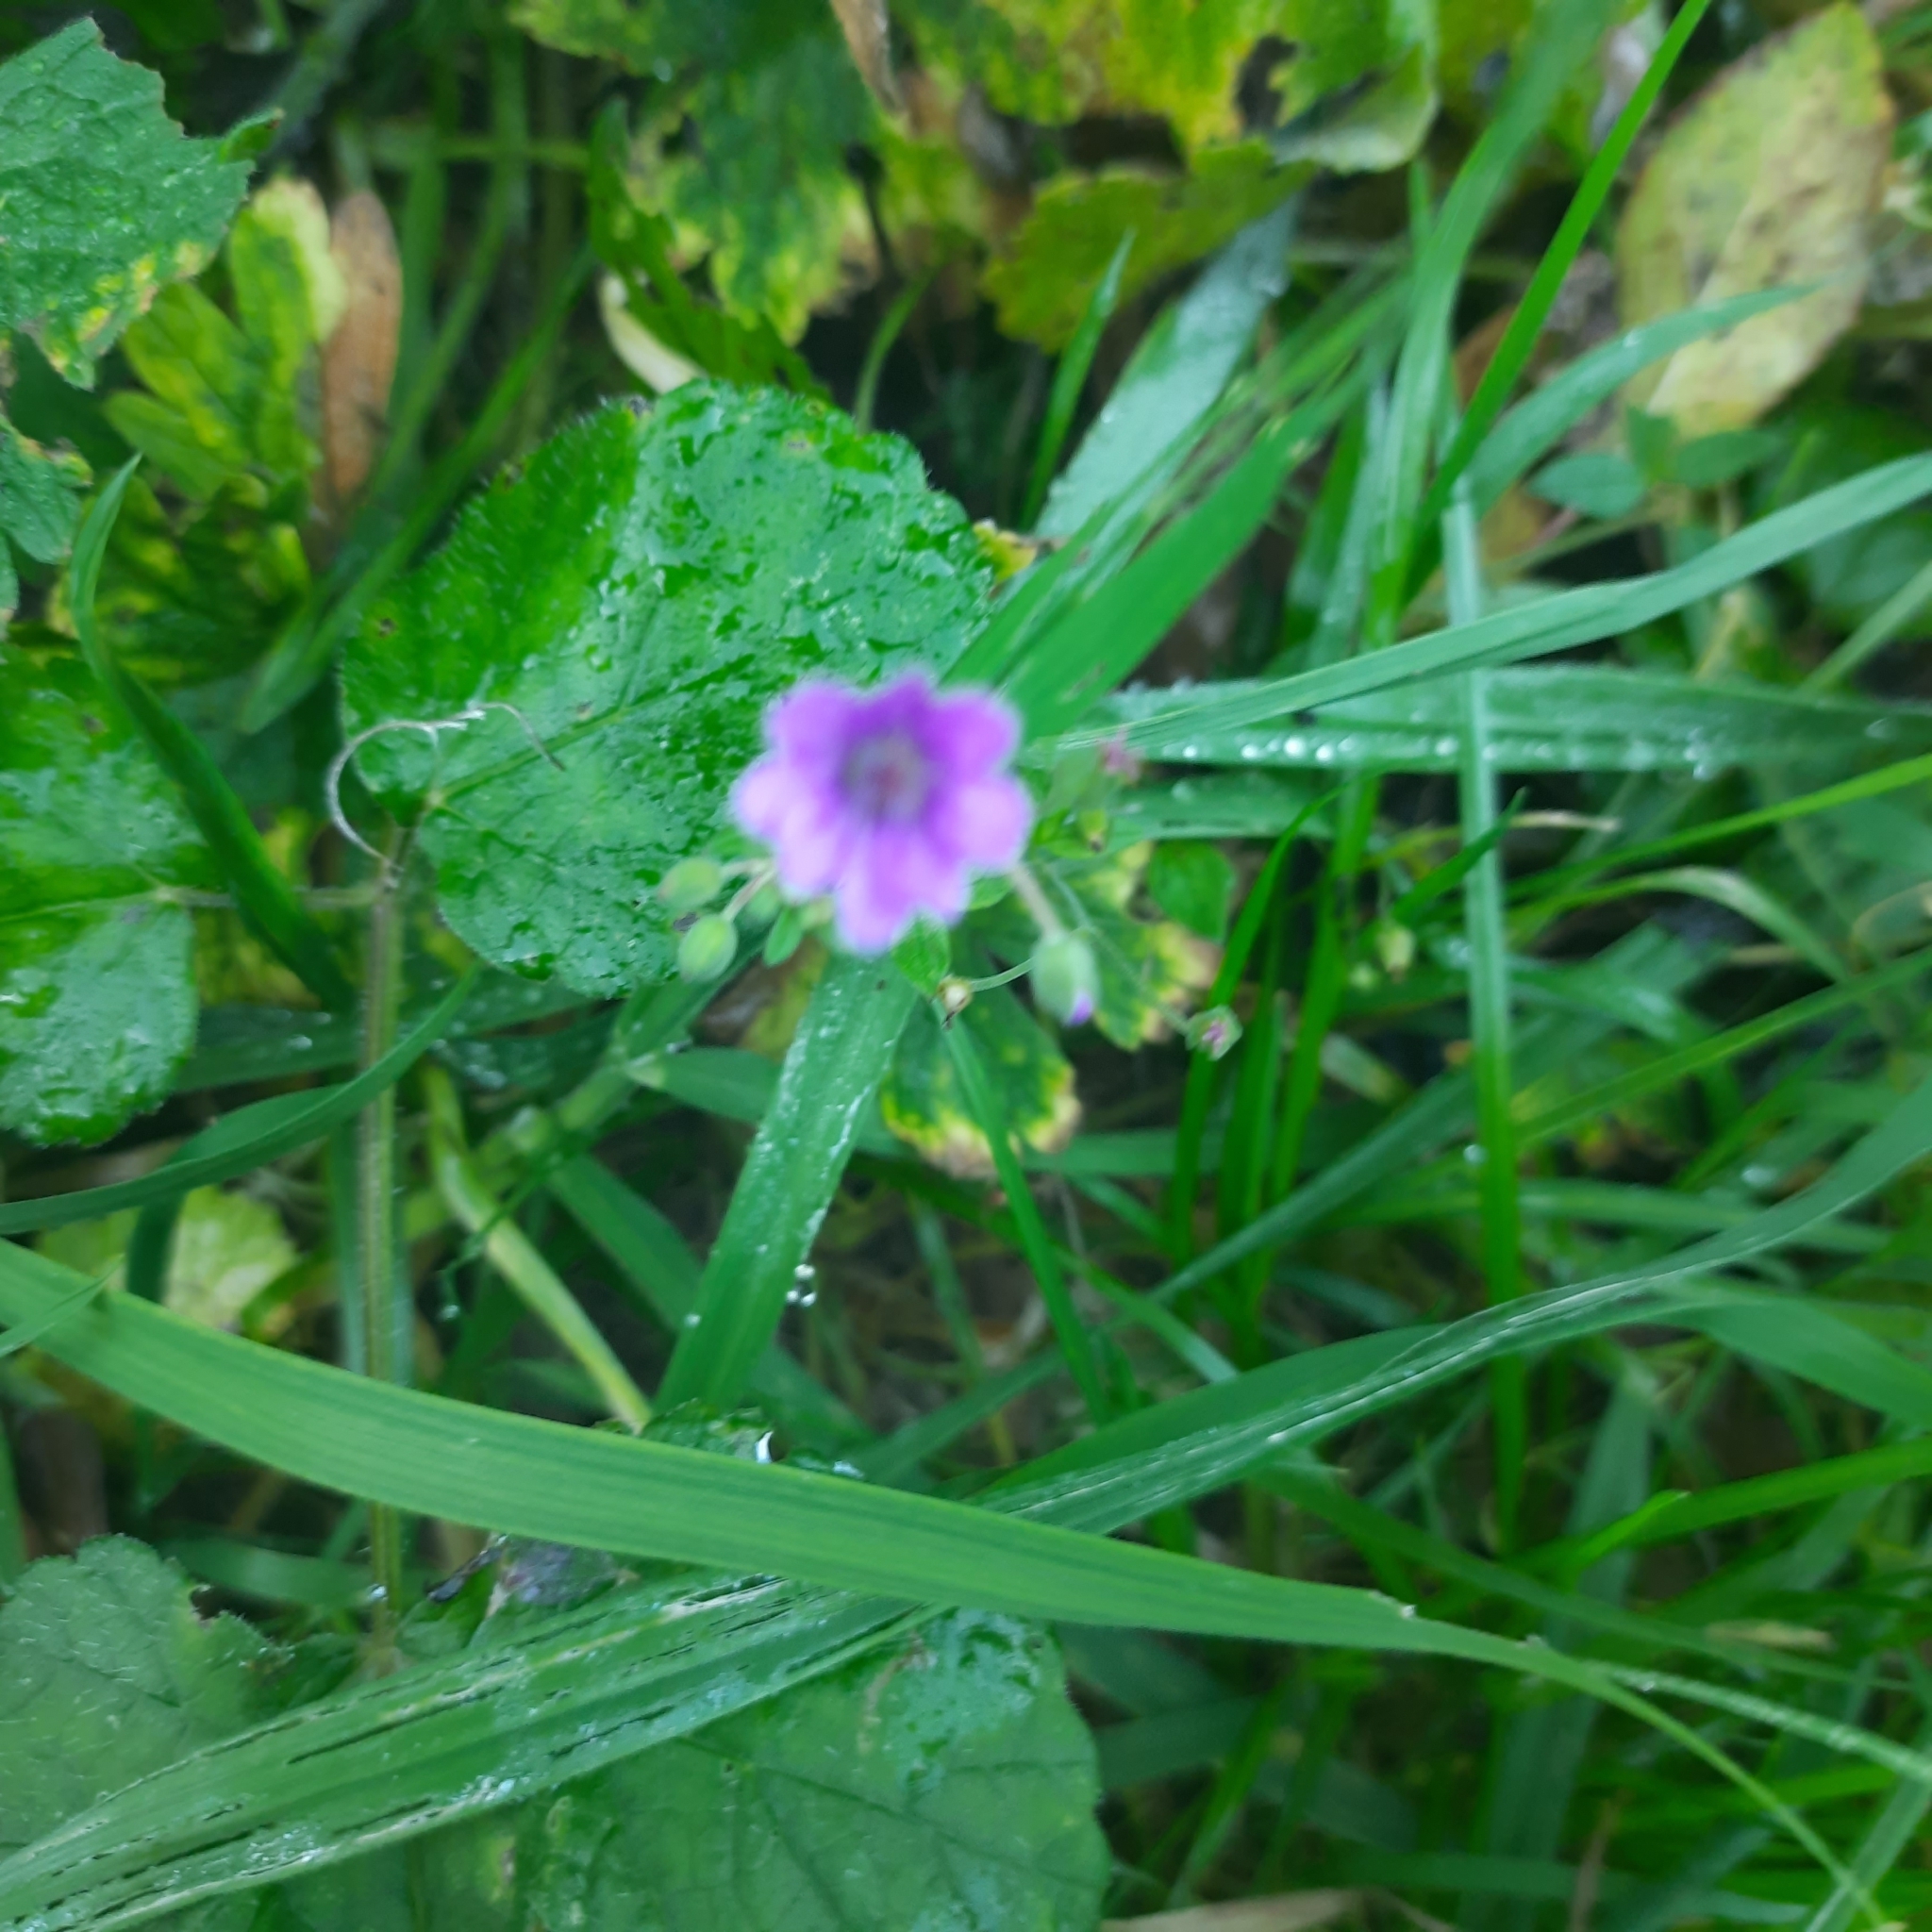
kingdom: Plantae
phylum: Tracheophyta
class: Magnoliopsida
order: Geraniales
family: Geraniaceae
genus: Geranium
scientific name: Geranium pyrenaicum
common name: Hedgerow crane's-bill
